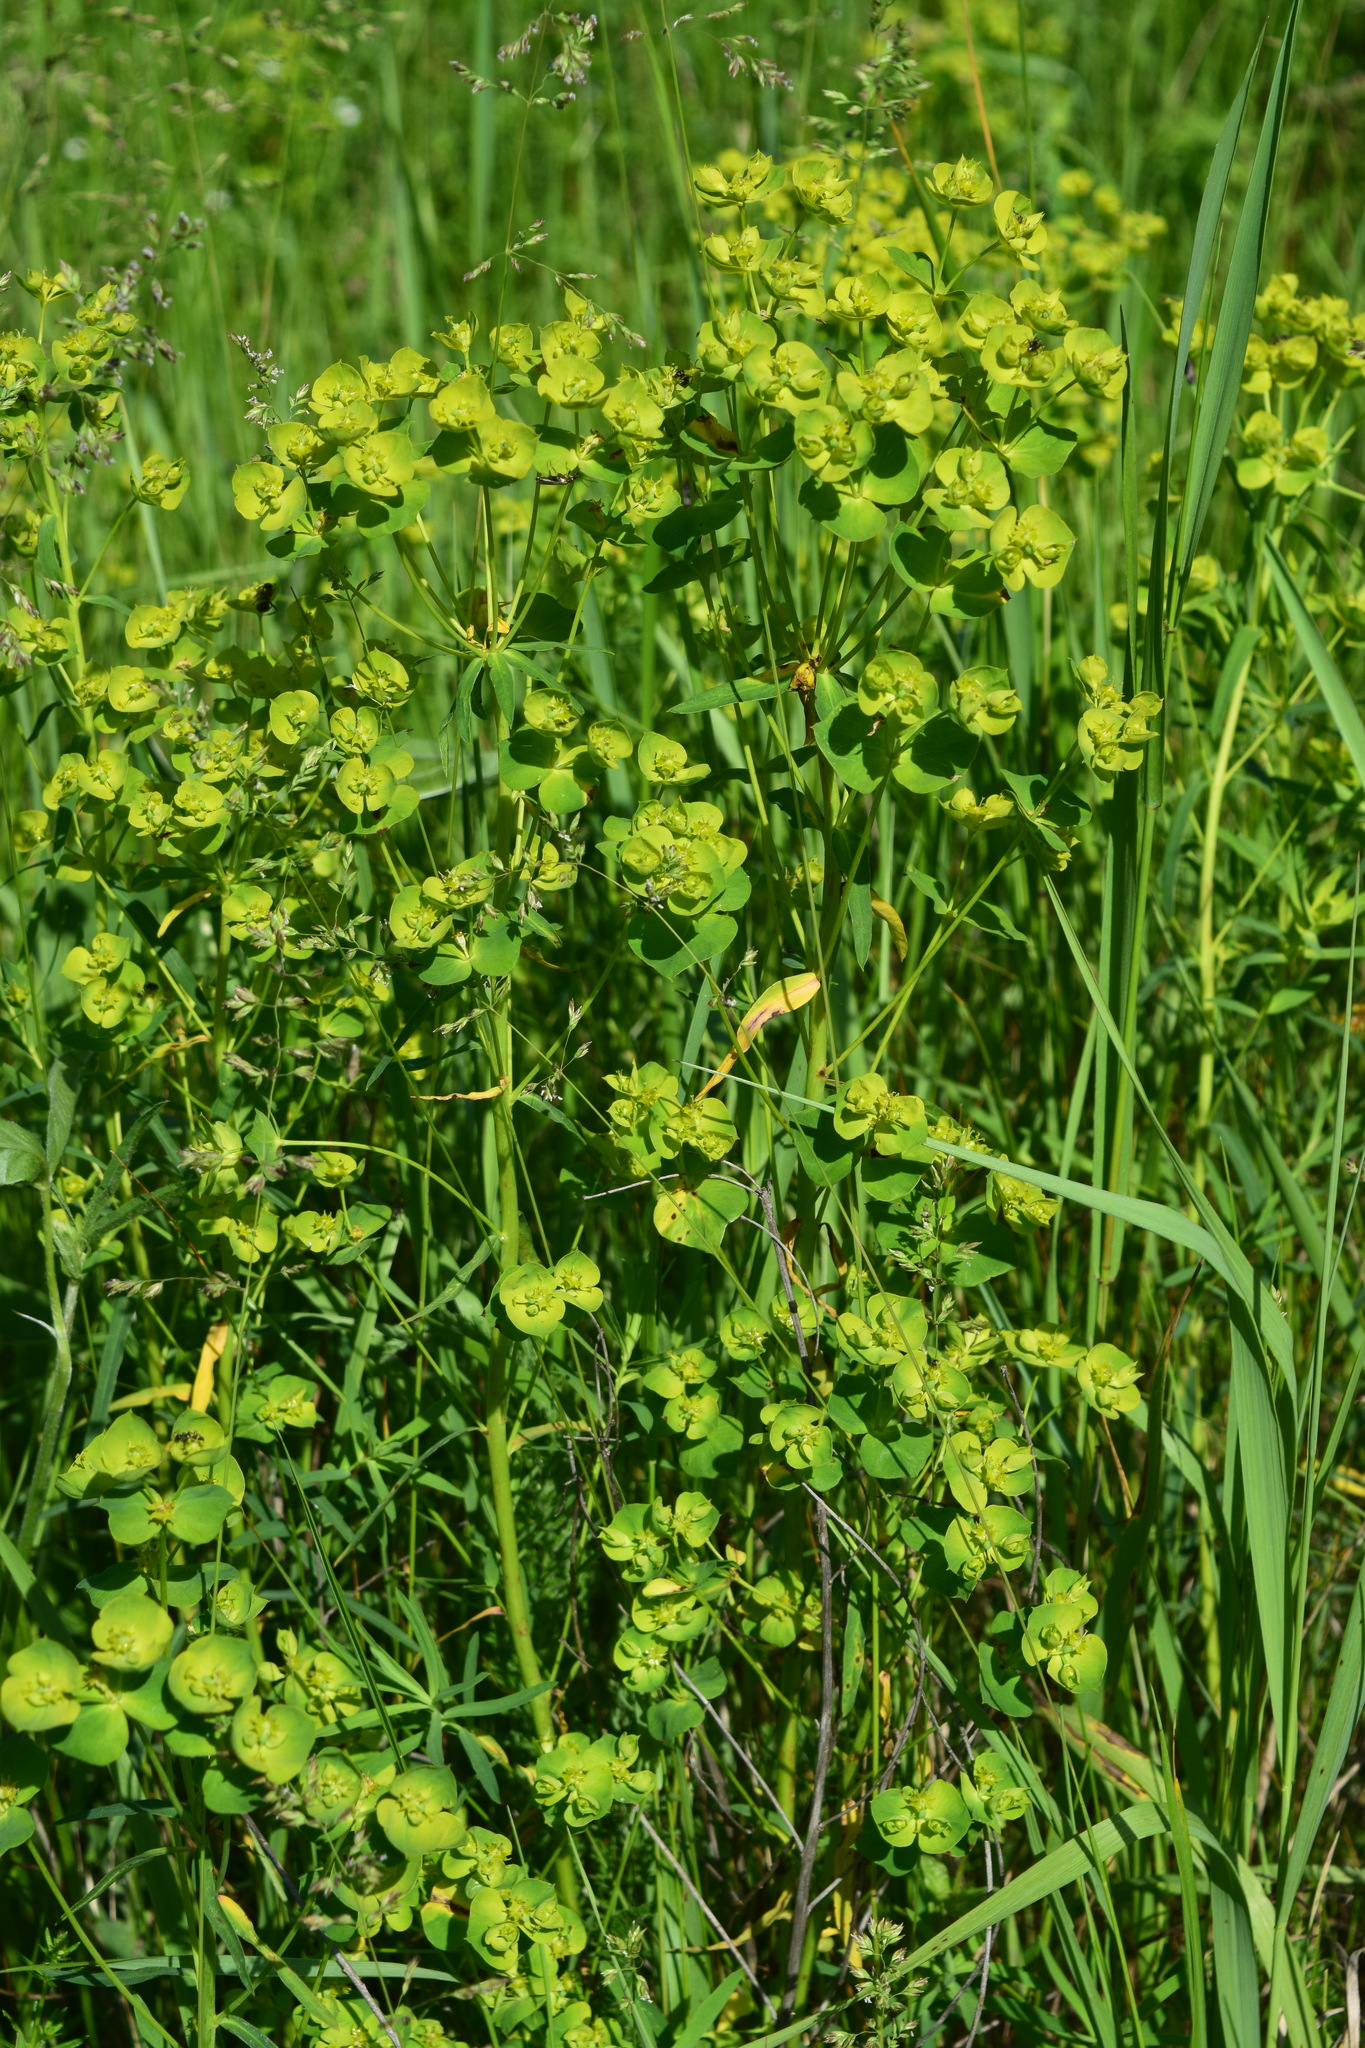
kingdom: Plantae
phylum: Tracheophyta
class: Magnoliopsida
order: Malpighiales
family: Euphorbiaceae
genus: Euphorbia
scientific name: Euphorbia virgata
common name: Leafy spurge
